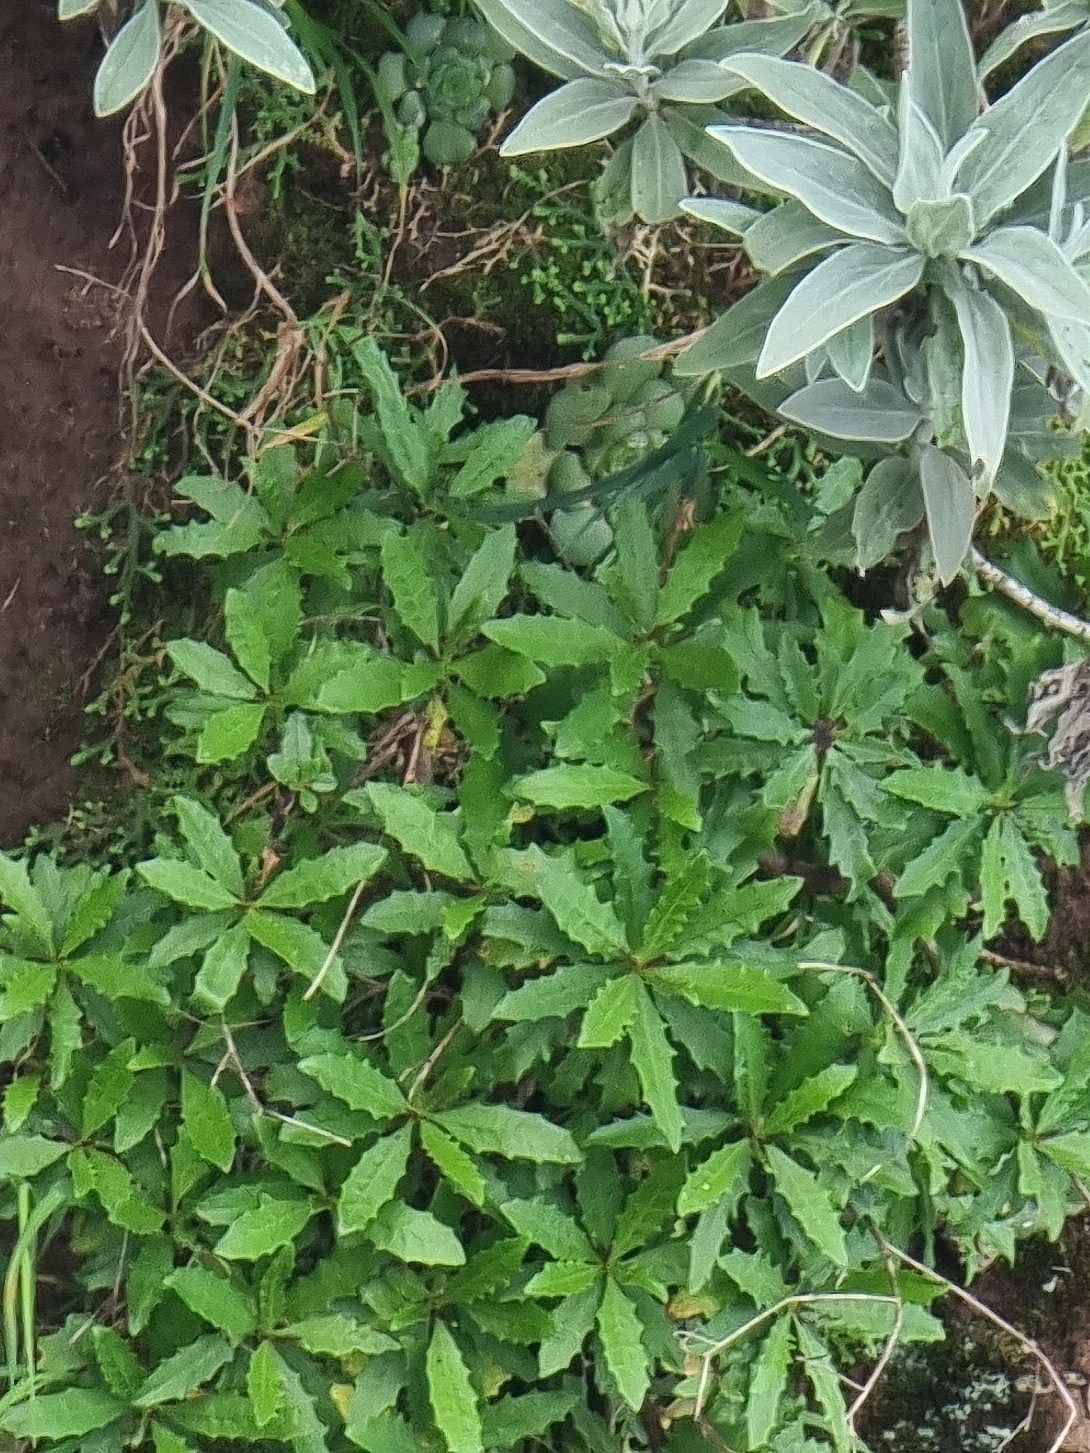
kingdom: Plantae
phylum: Tracheophyta
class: Magnoliopsida
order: Asterales
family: Asteraceae
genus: Tolpis
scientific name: Tolpis succulenta
